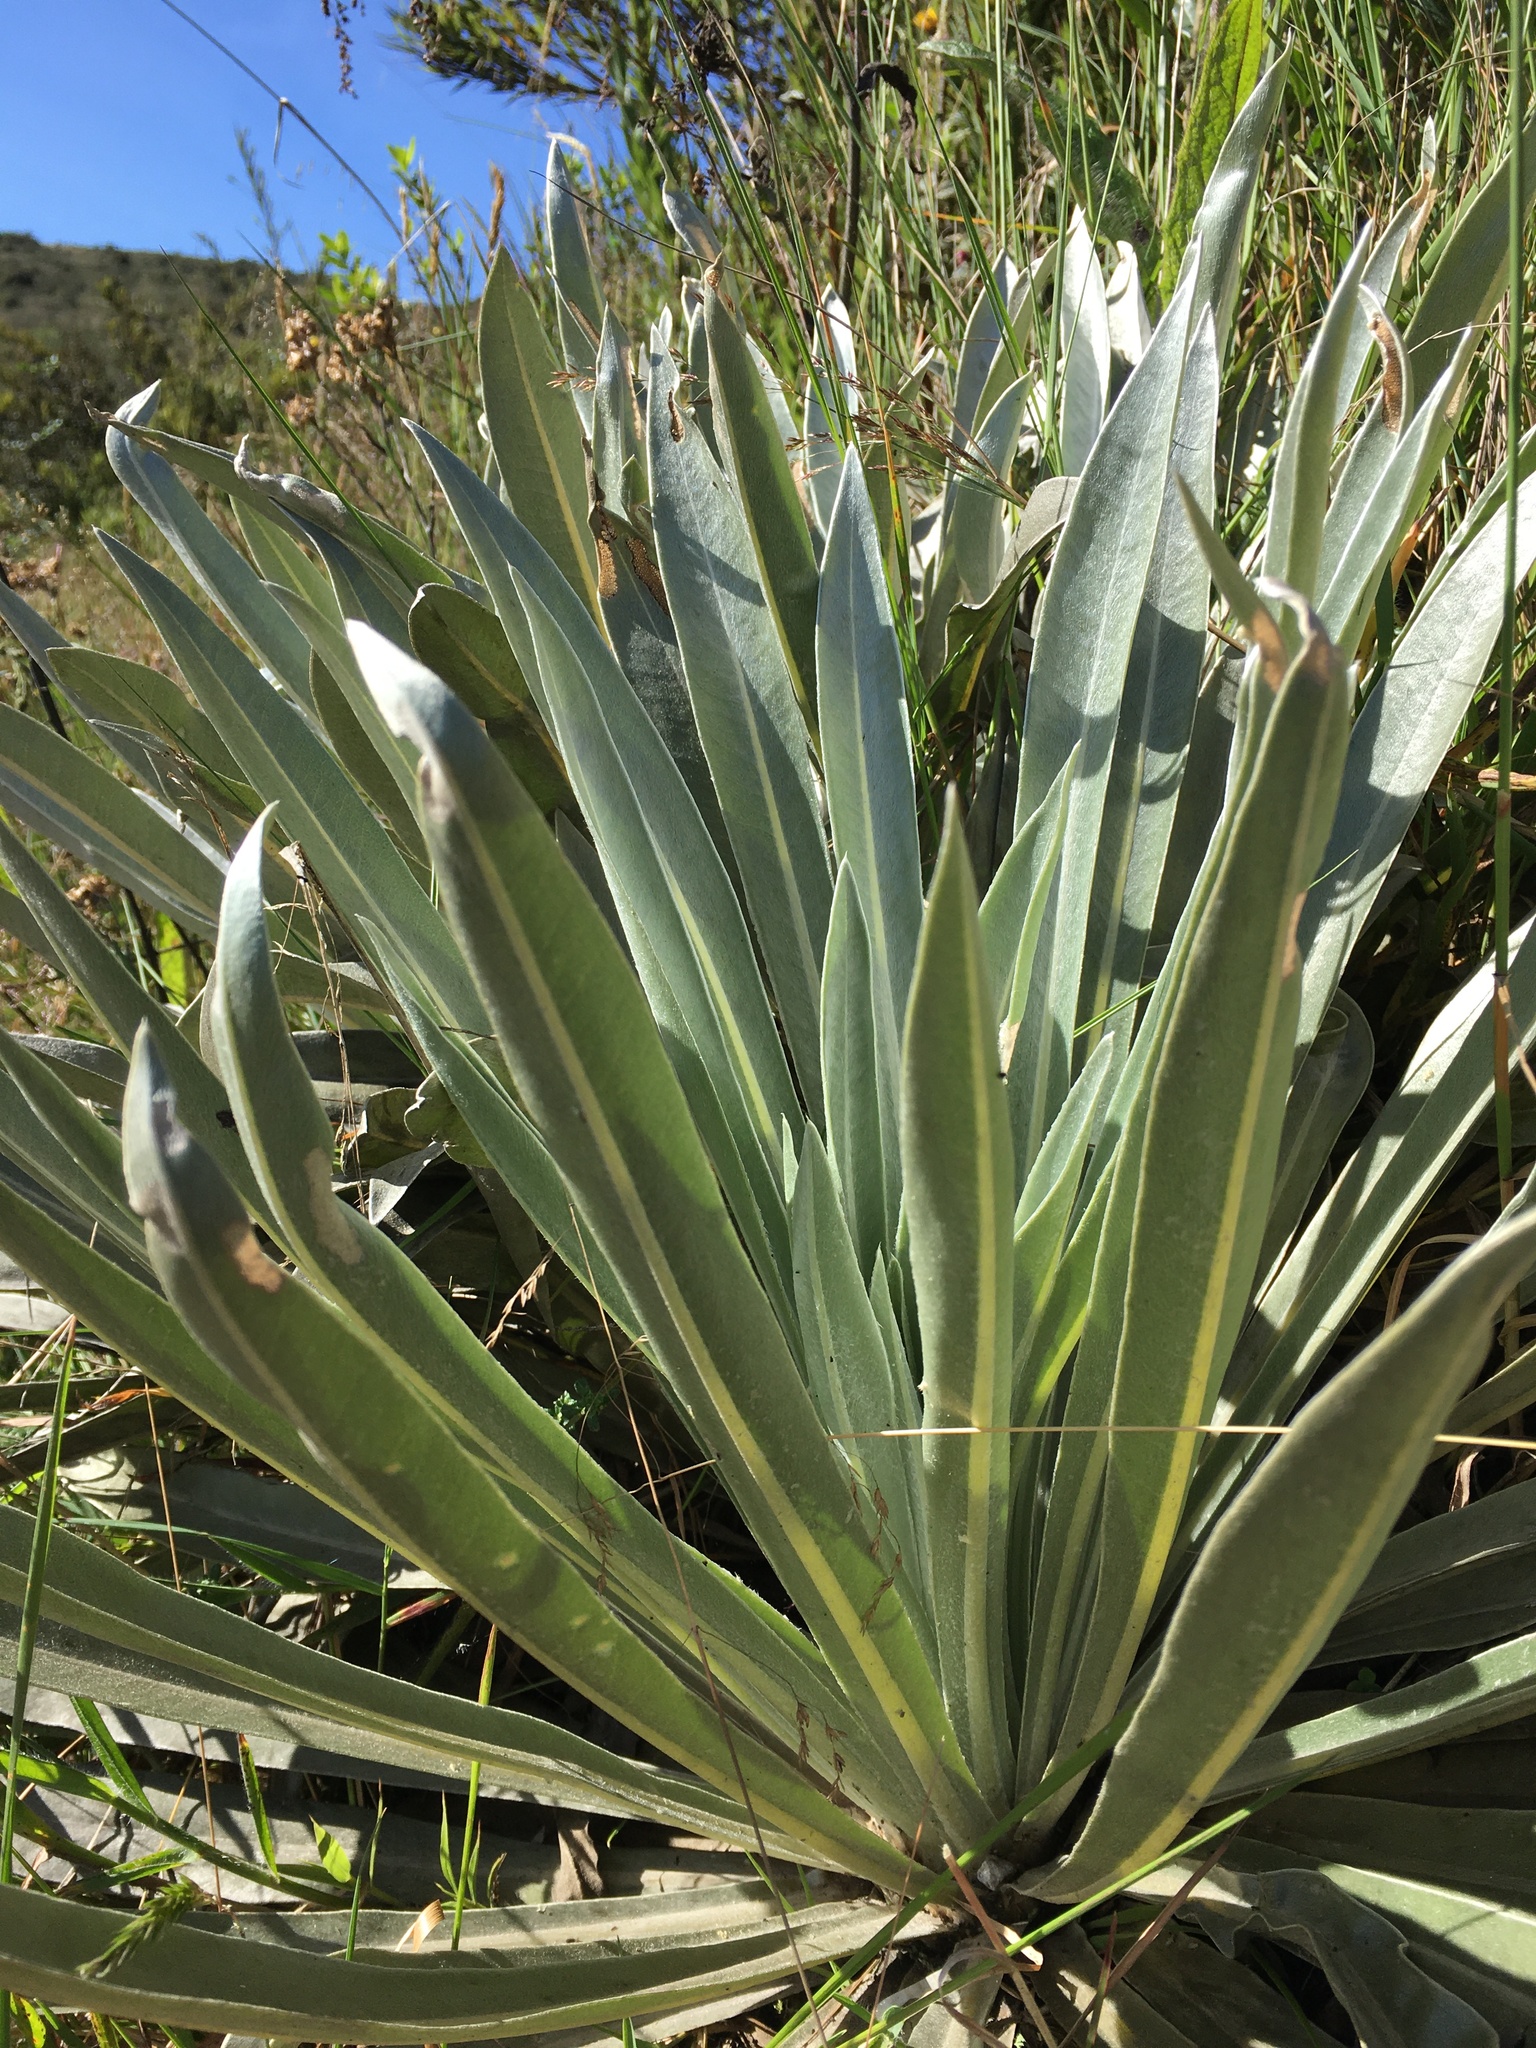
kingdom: Plantae
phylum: Tracheophyta
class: Magnoliopsida
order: Asterales
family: Asteraceae
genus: Espeletia
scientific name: Espeletia argentea
